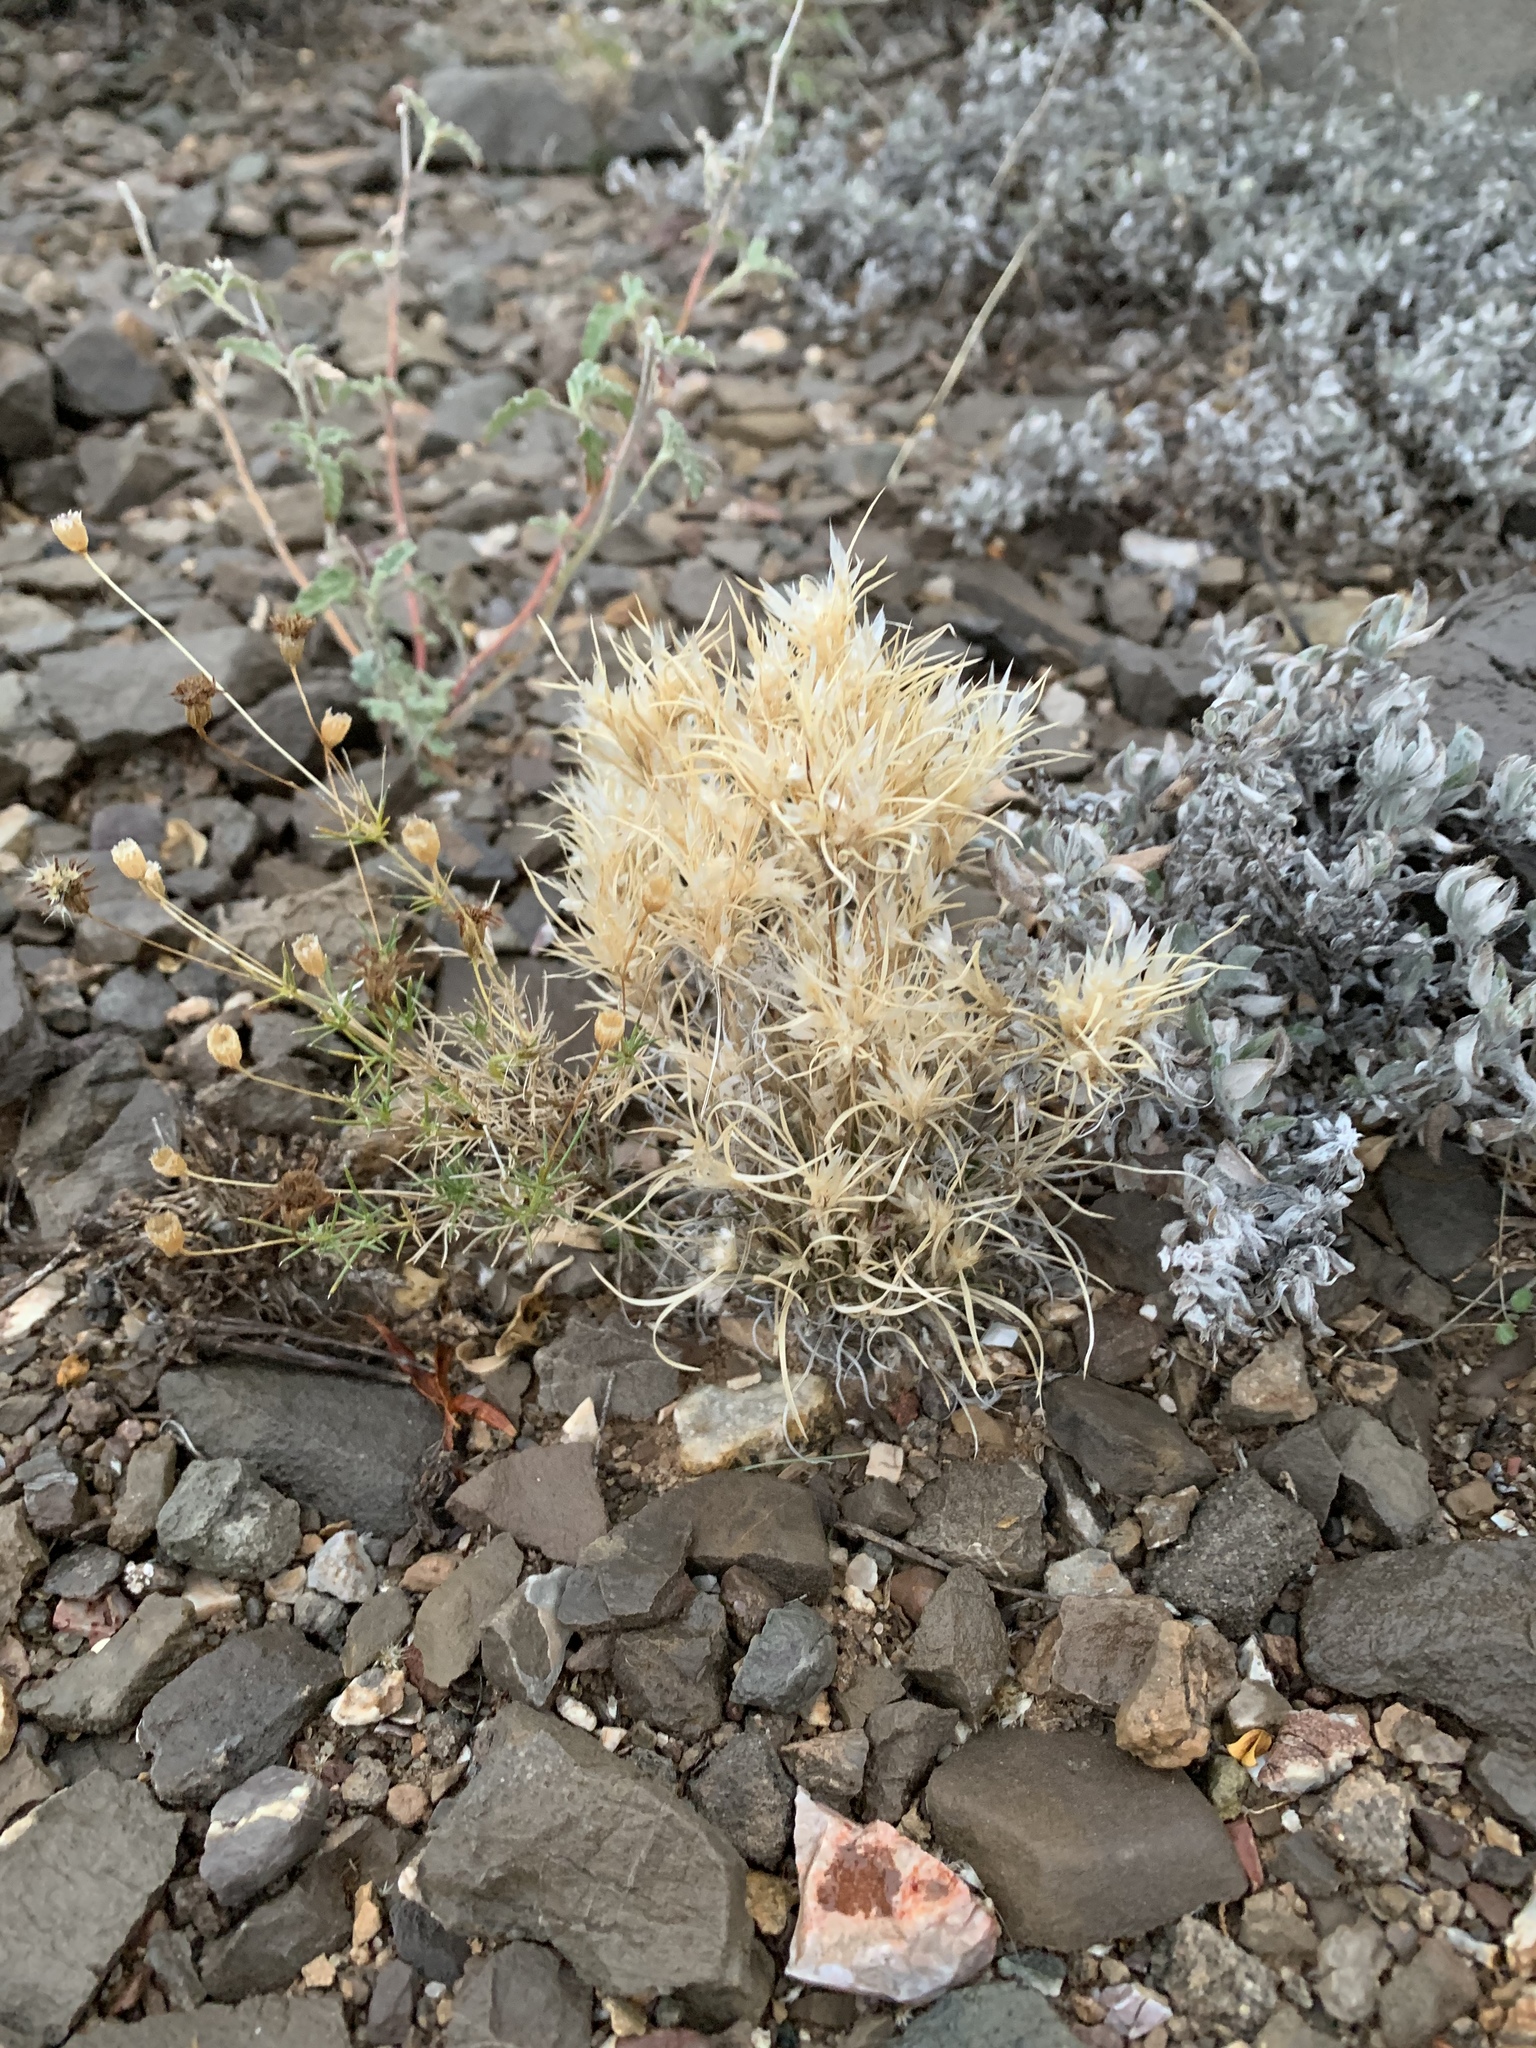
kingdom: Plantae
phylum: Tracheophyta
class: Liliopsida
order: Poales
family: Poaceae
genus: Dasyochloa
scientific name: Dasyochloa pulchella
